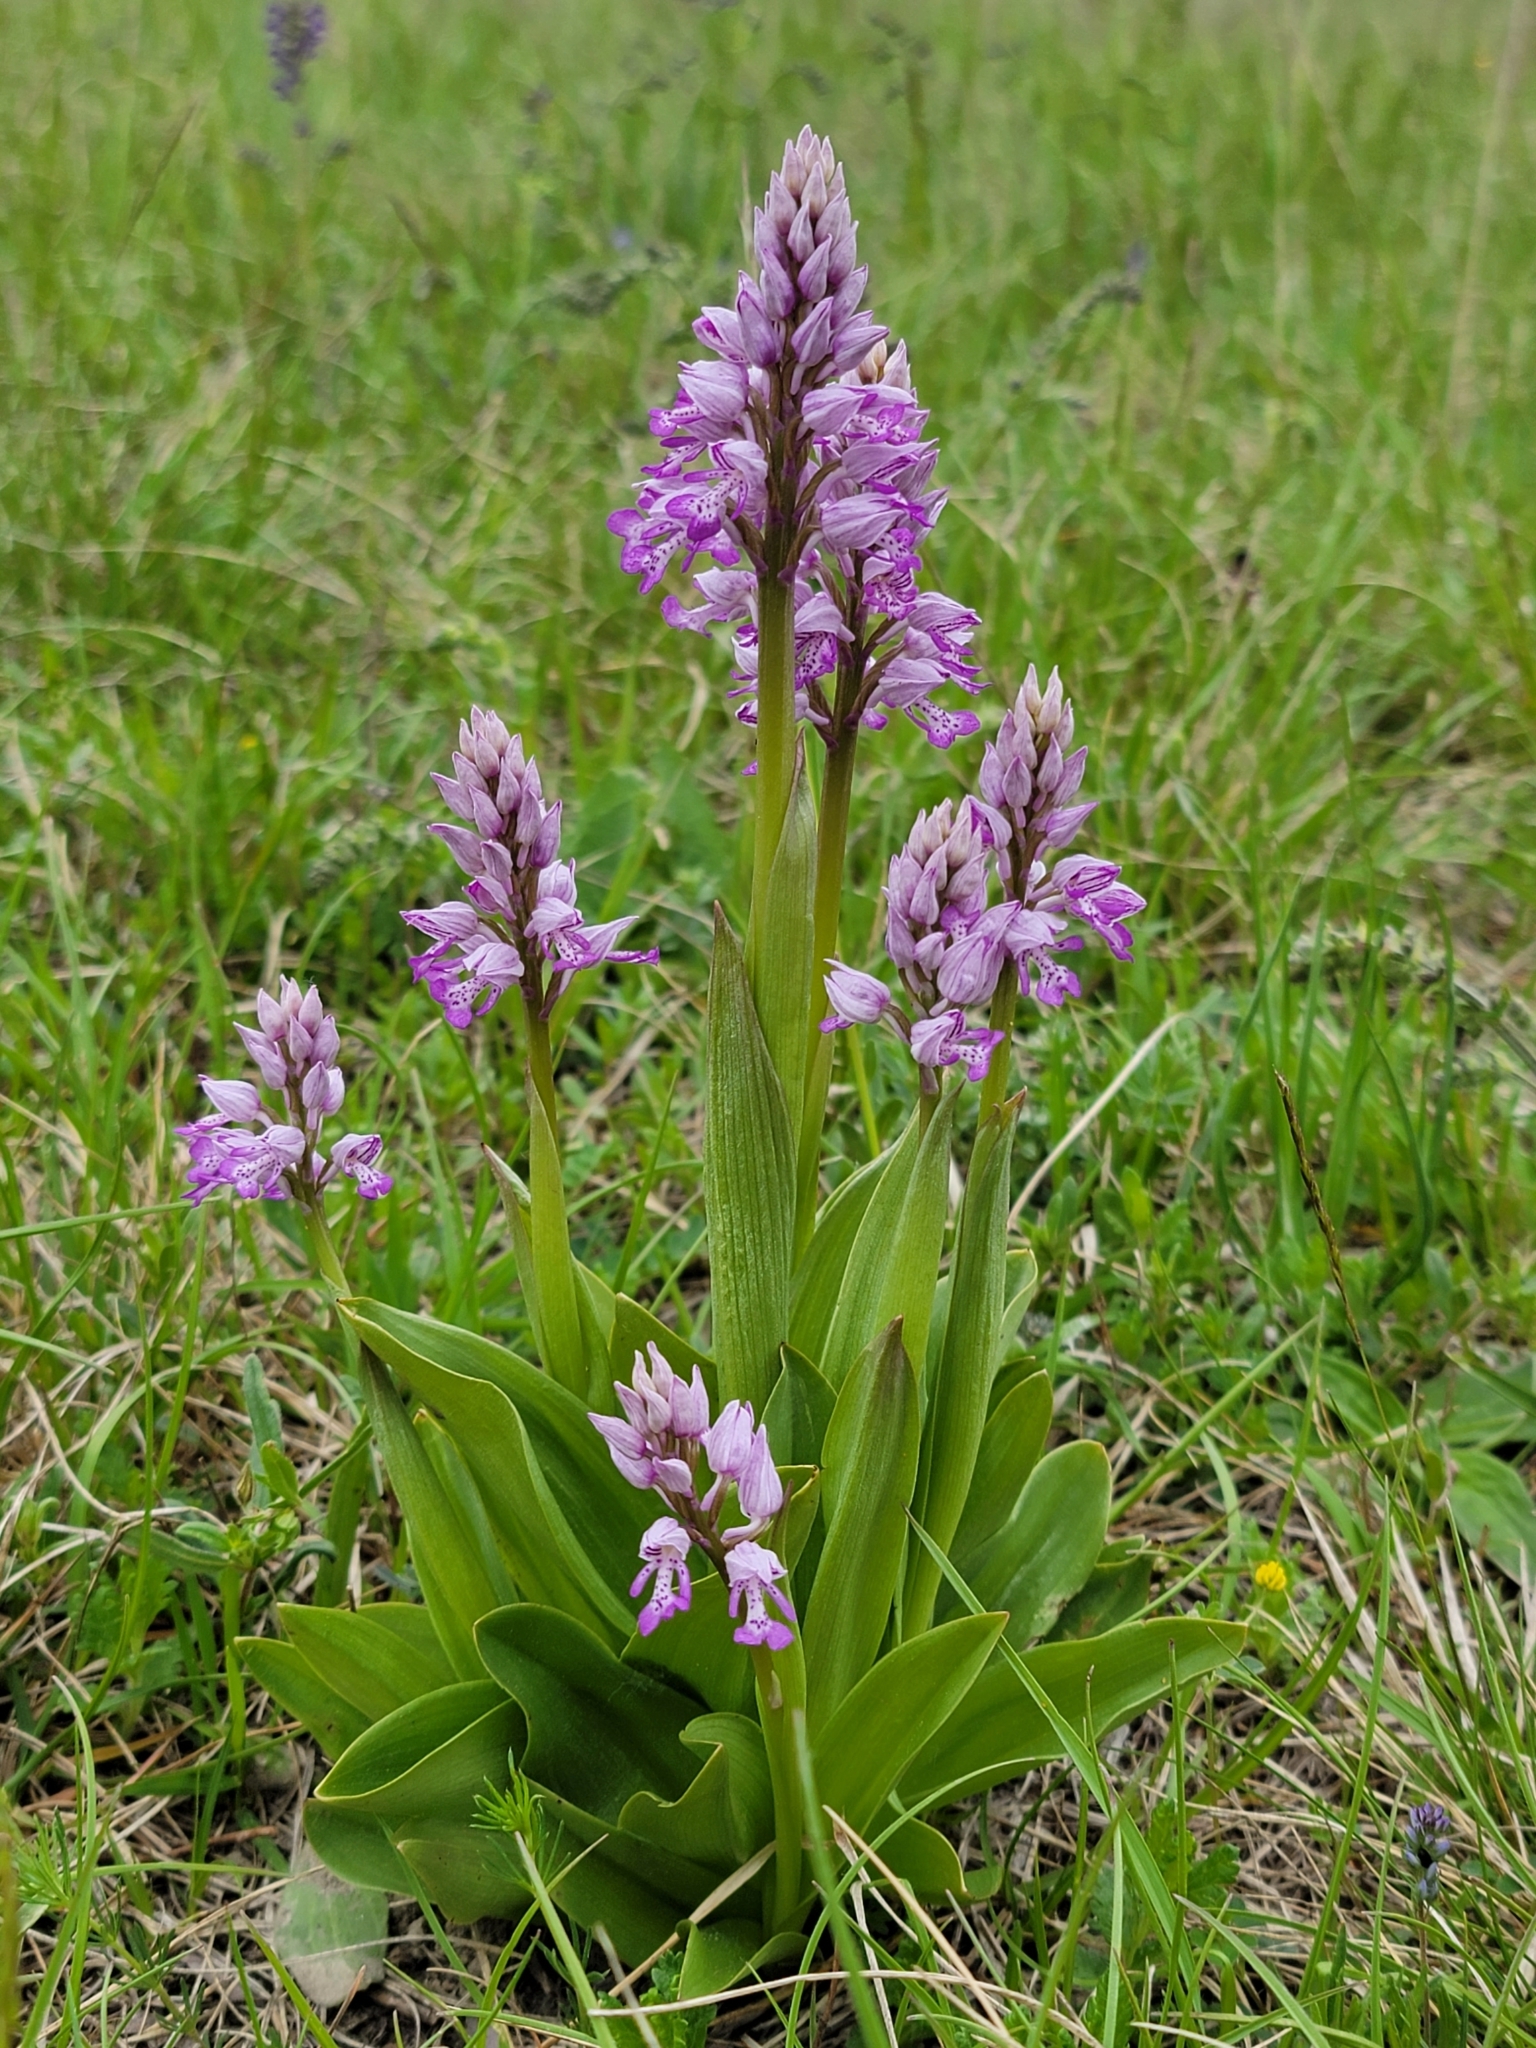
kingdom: Plantae
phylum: Tracheophyta
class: Liliopsida
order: Asparagales
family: Orchidaceae
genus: Orchis
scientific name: Orchis militaris
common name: Military orchid
